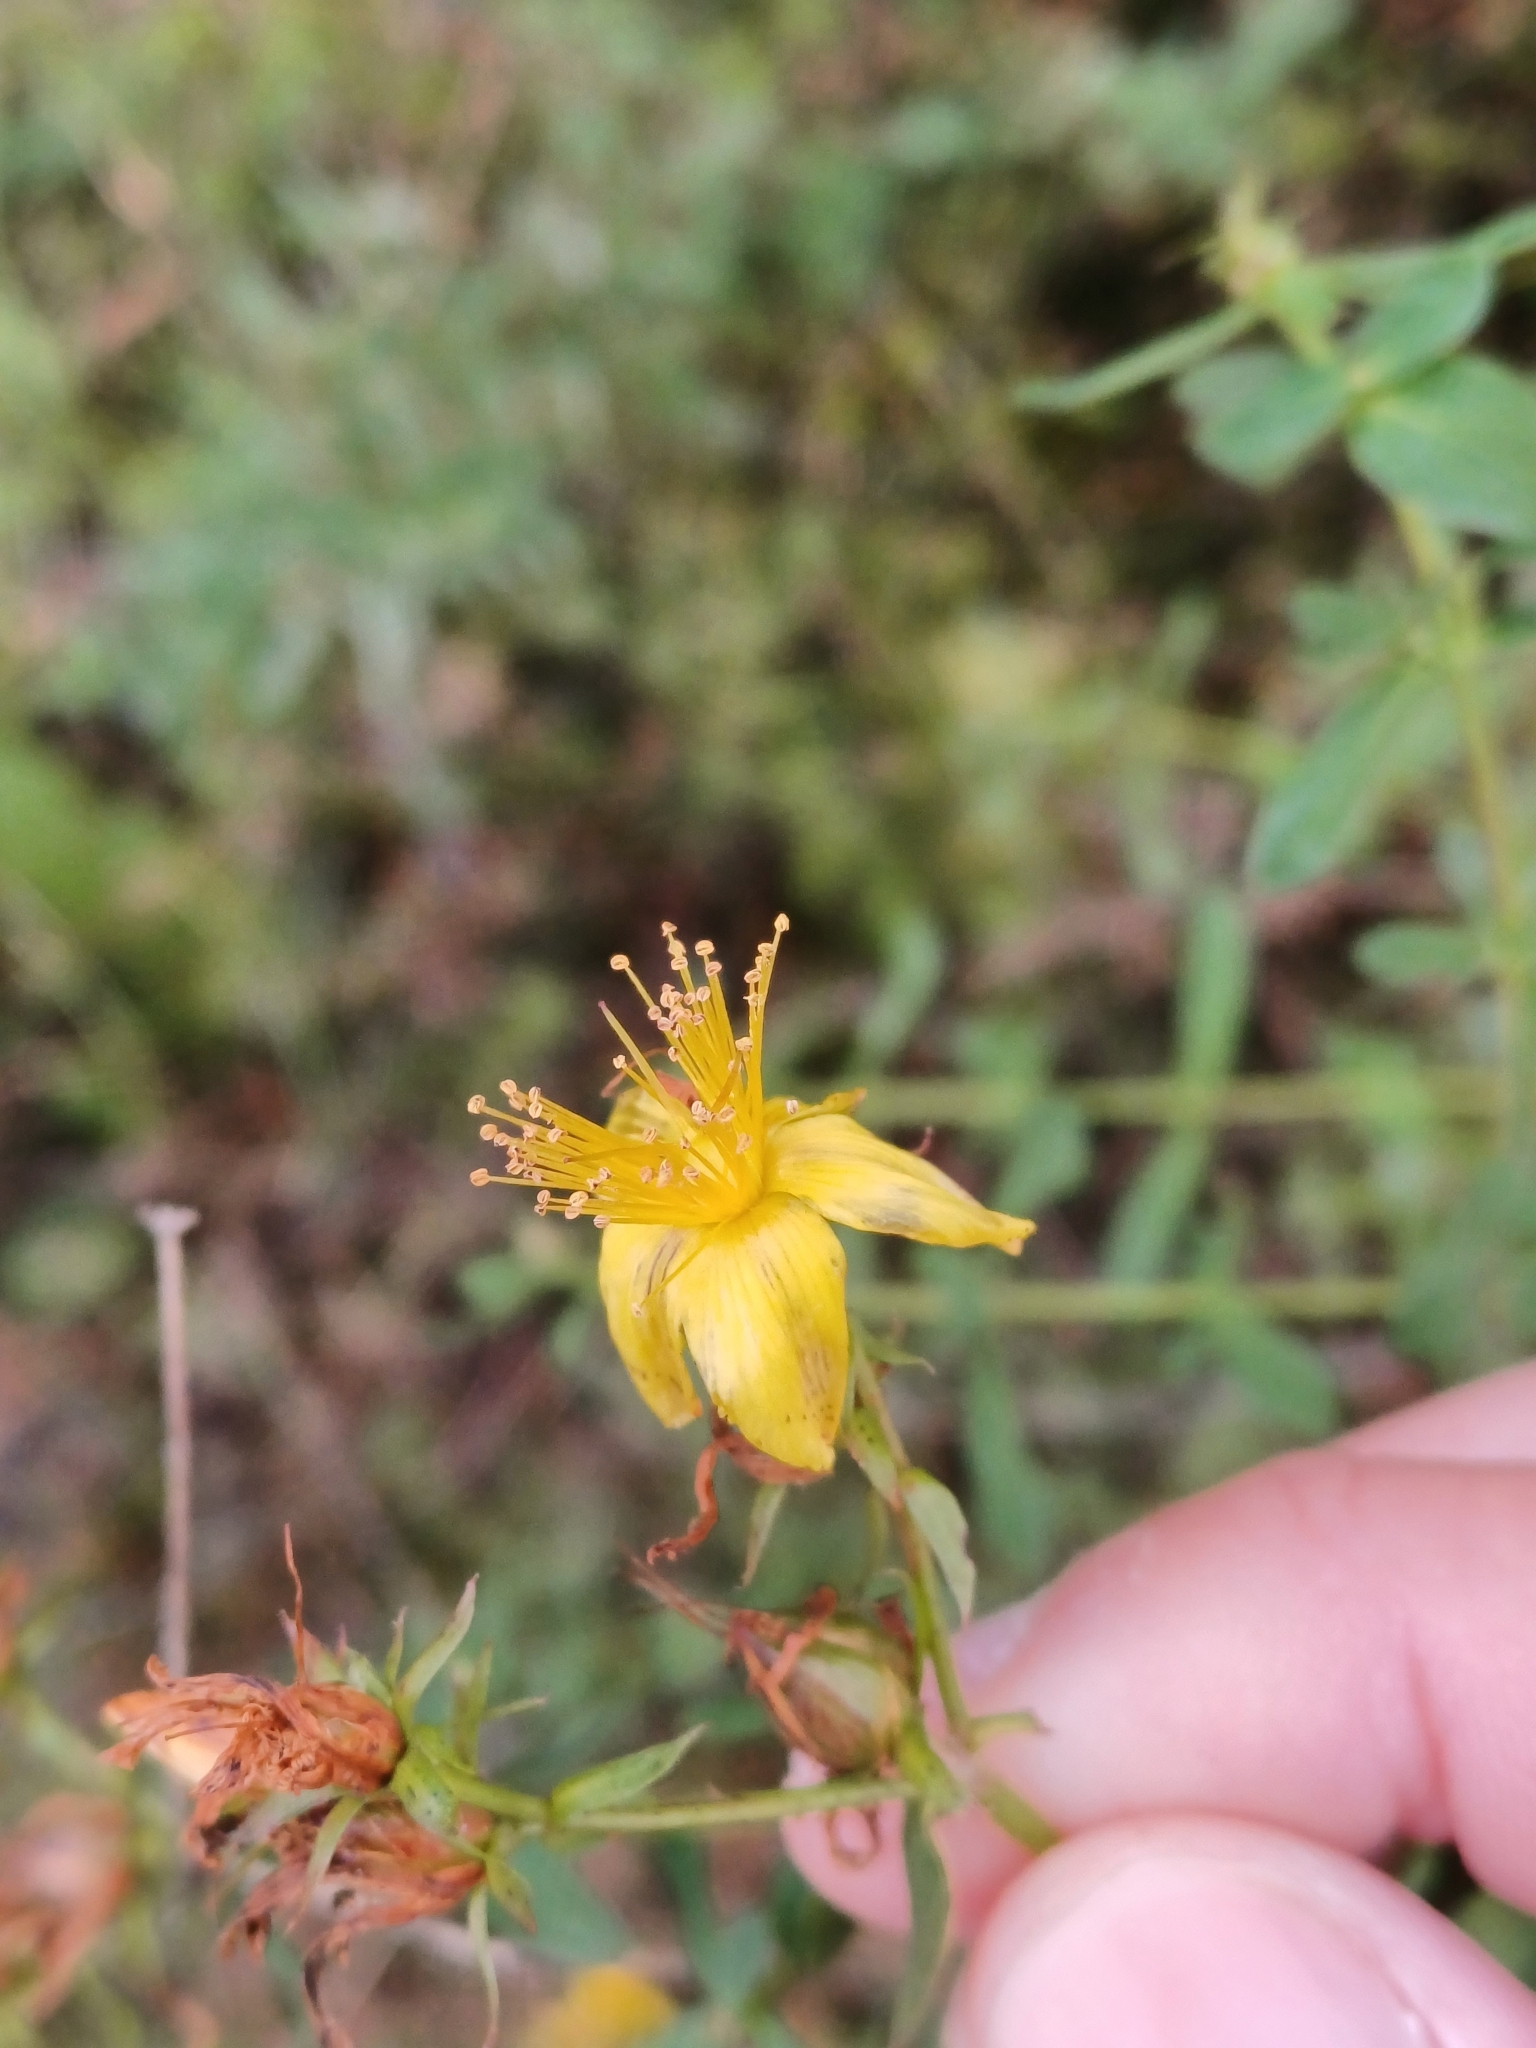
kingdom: Plantae
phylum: Tracheophyta
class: Magnoliopsida
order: Malpighiales
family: Hypericaceae
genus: Hypericum
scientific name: Hypericum perforatum
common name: Common st. johnswort
